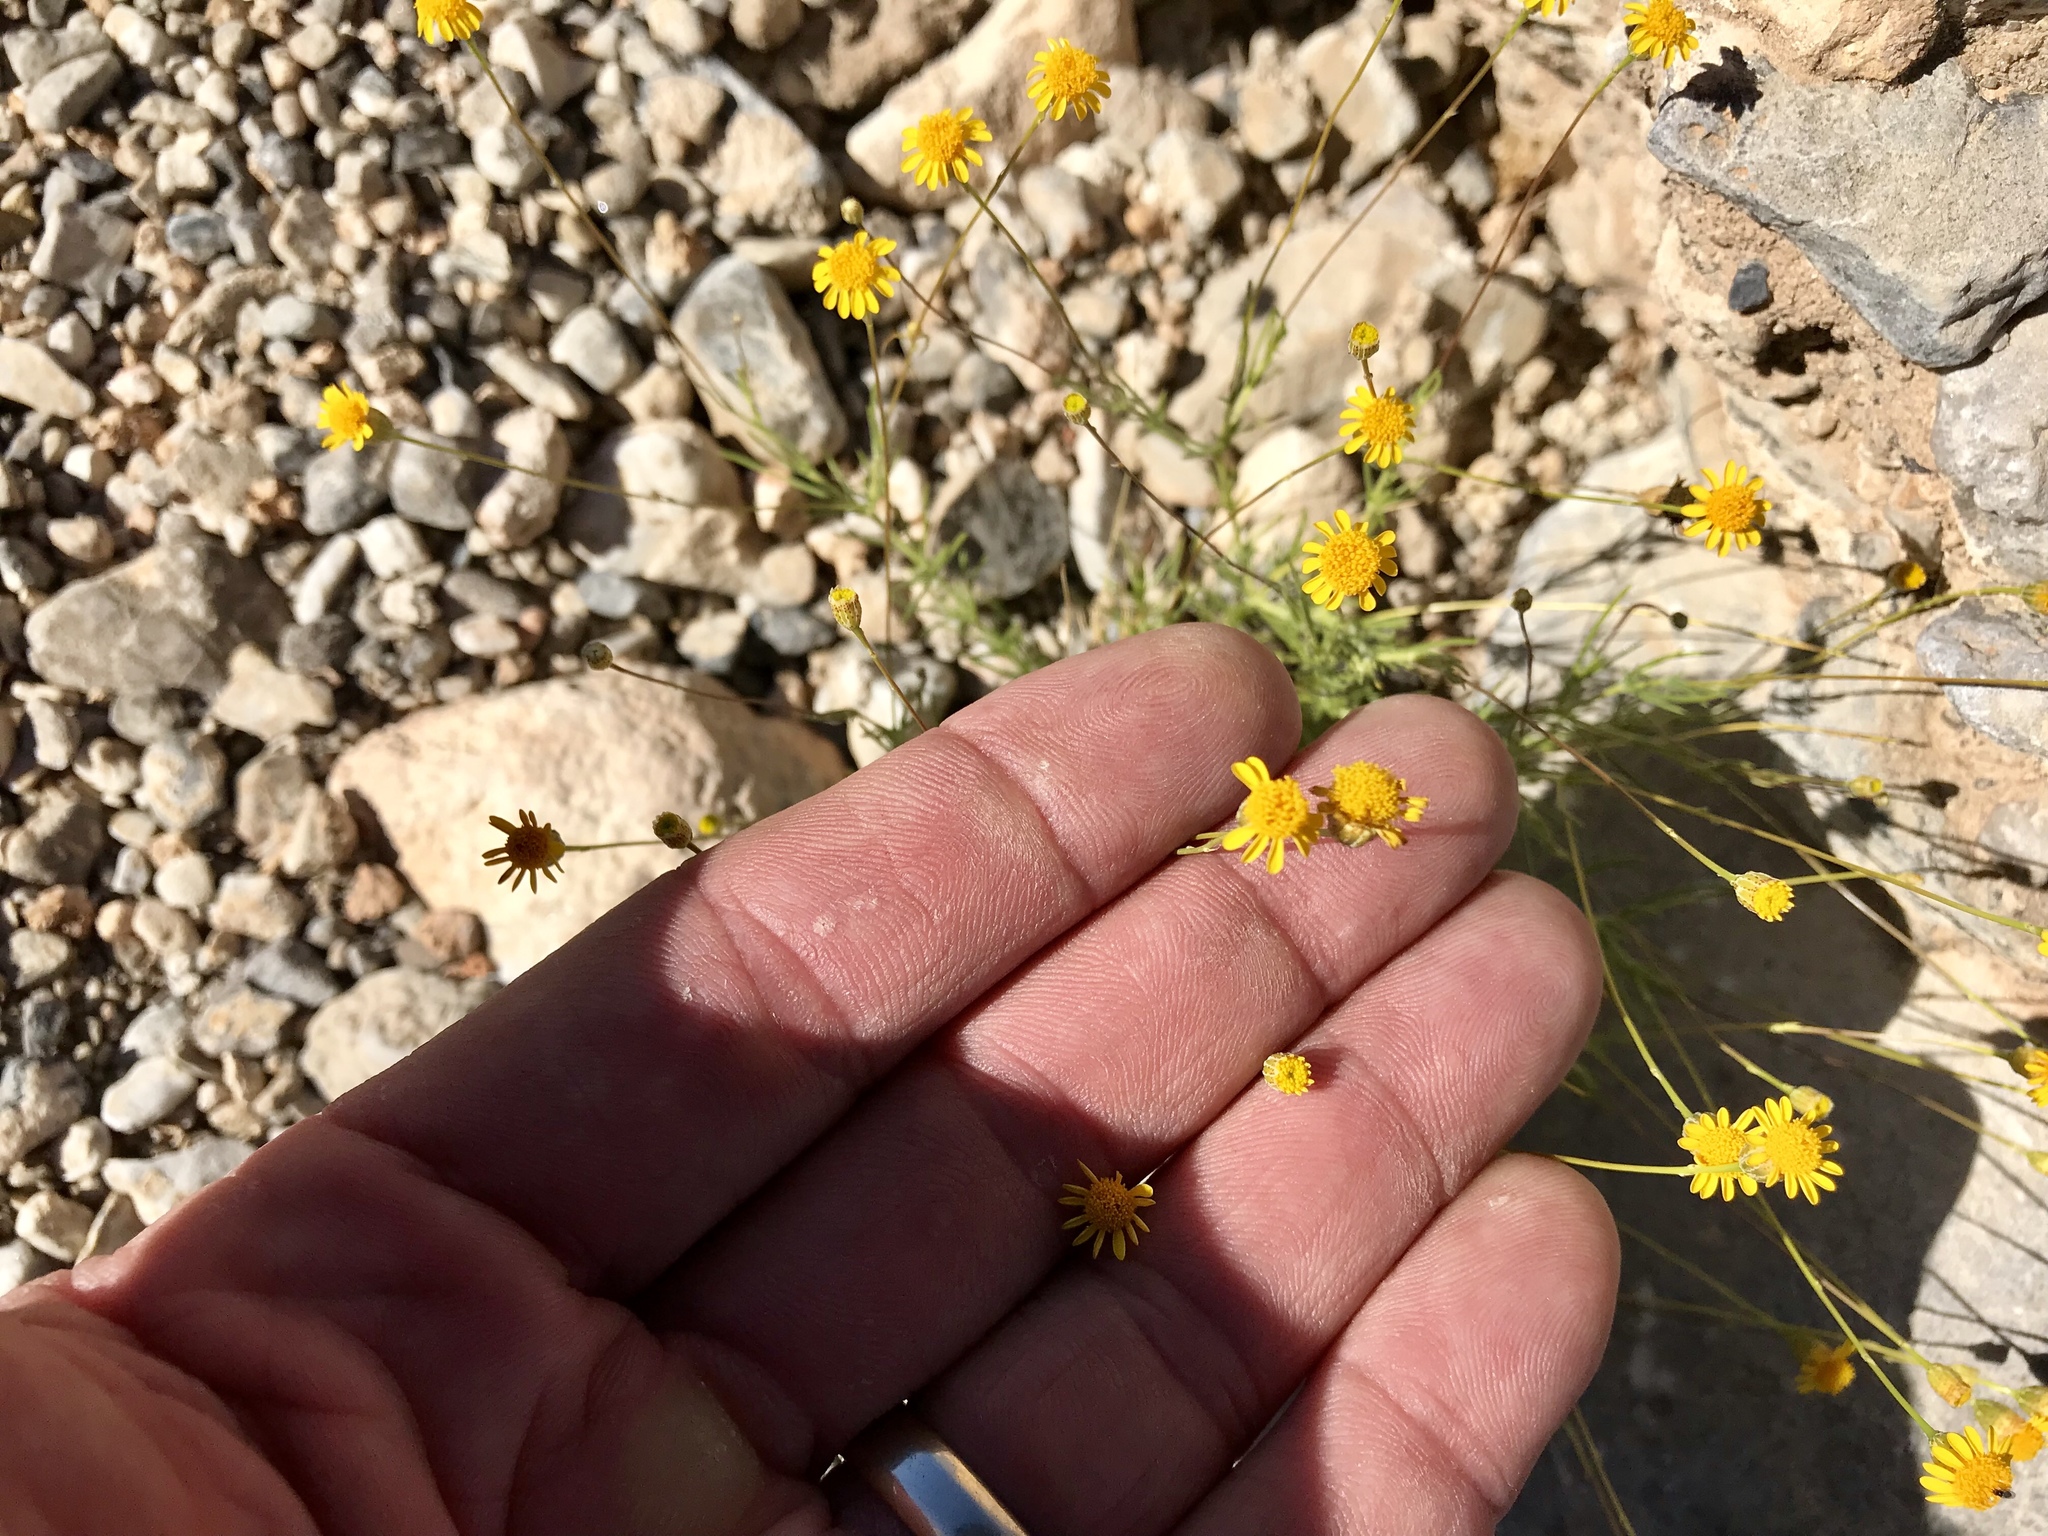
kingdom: Plantae
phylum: Tracheophyta
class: Magnoliopsida
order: Asterales
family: Asteraceae
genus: Thymophylla
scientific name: Thymophylla pentachaeta
